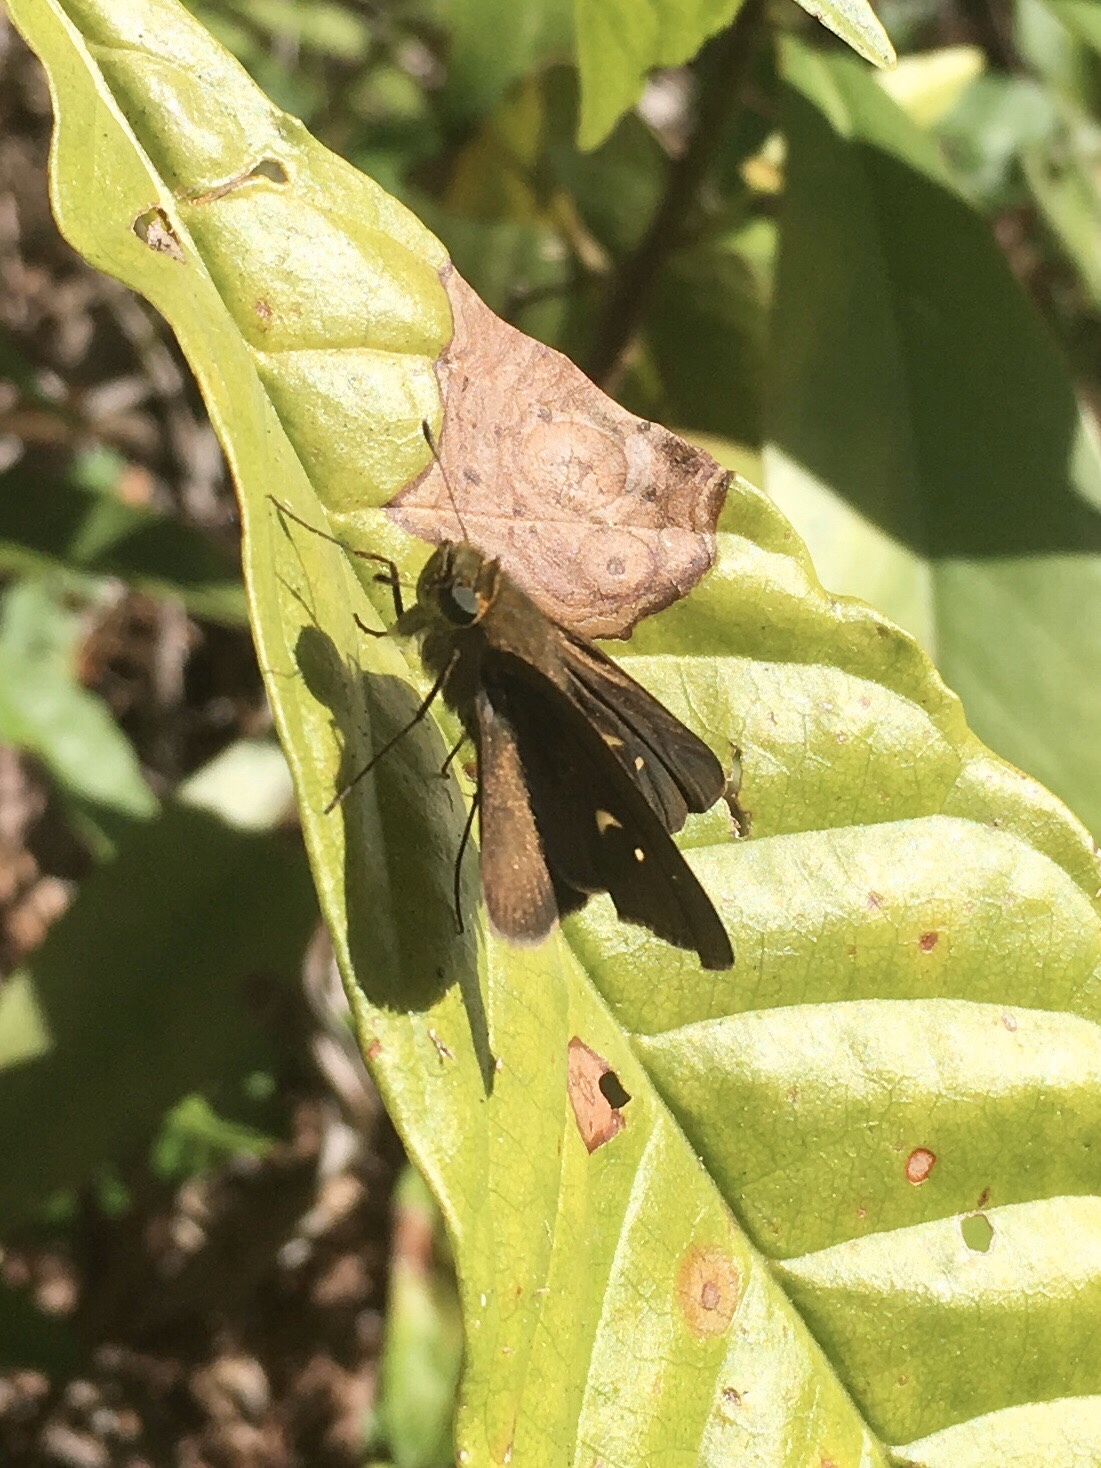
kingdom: Animalia
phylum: Arthropoda
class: Insecta
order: Lepidoptera
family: Hesperiidae
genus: Panoquina
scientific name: Panoquina ocola
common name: Ocola skipper
